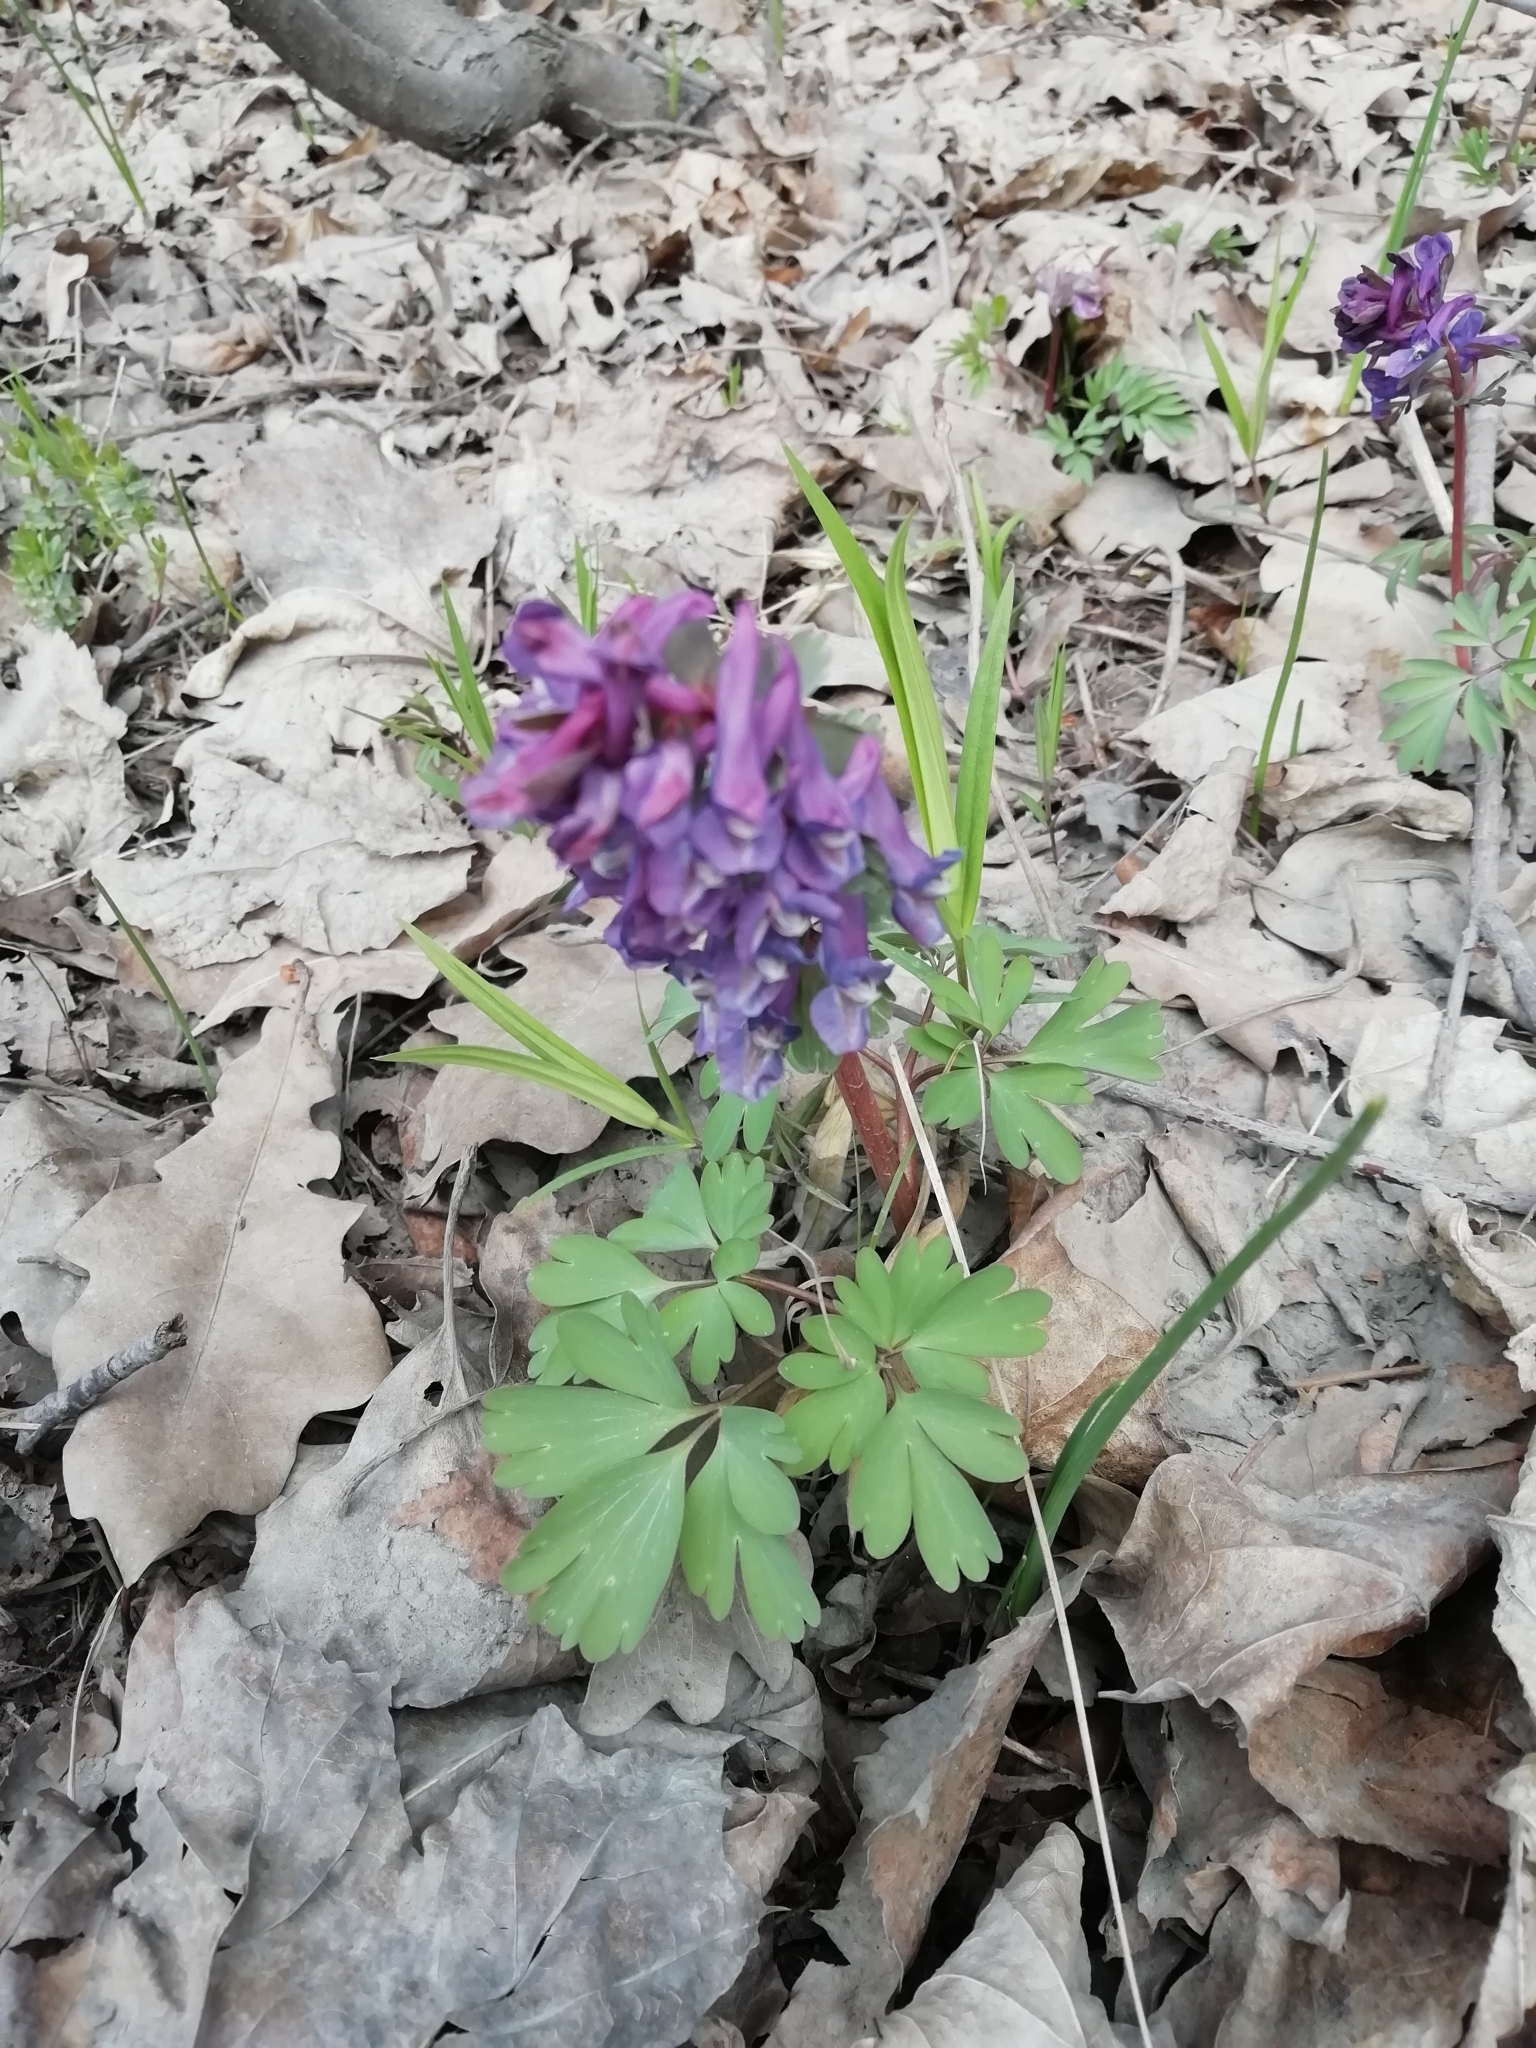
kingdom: Plantae
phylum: Tracheophyta
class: Magnoliopsida
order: Ranunculales
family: Papaveraceae
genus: Corydalis
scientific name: Corydalis solida
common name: Bird-in-a-bush
